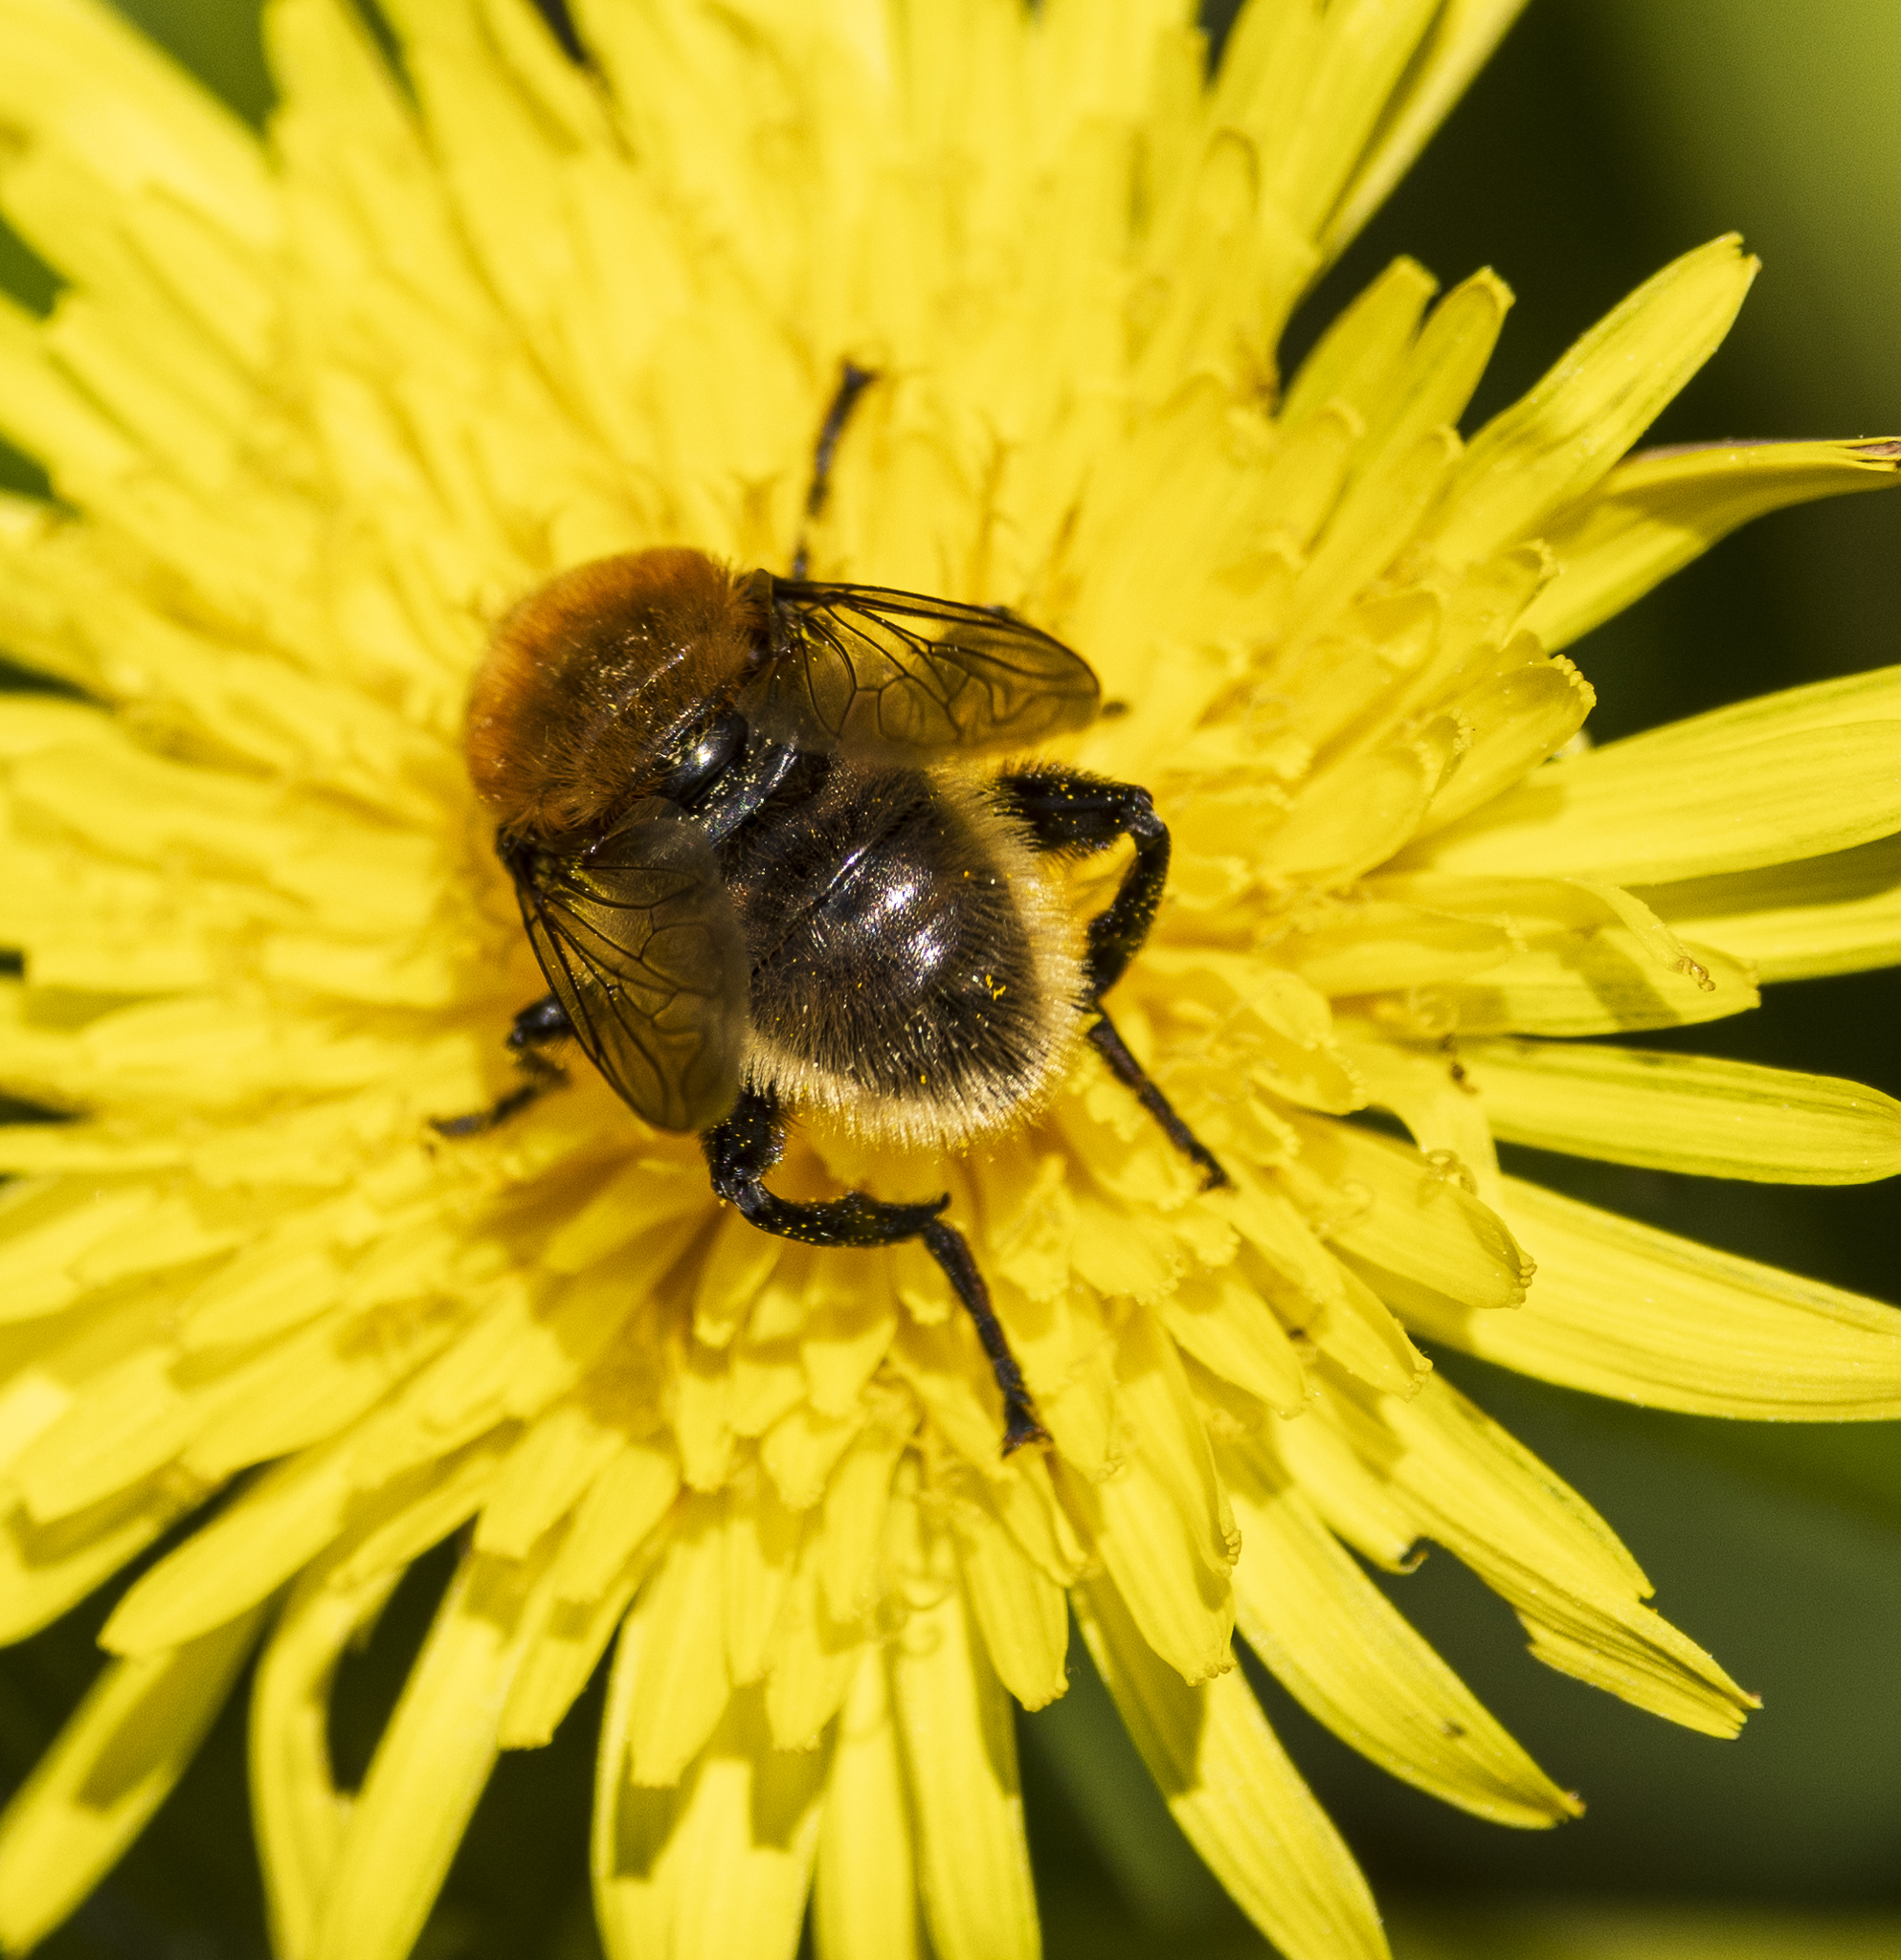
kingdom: Animalia
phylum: Arthropoda
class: Insecta
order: Diptera
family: Syrphidae
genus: Merodon
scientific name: Merodon equestris
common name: Greater bulb-fly
